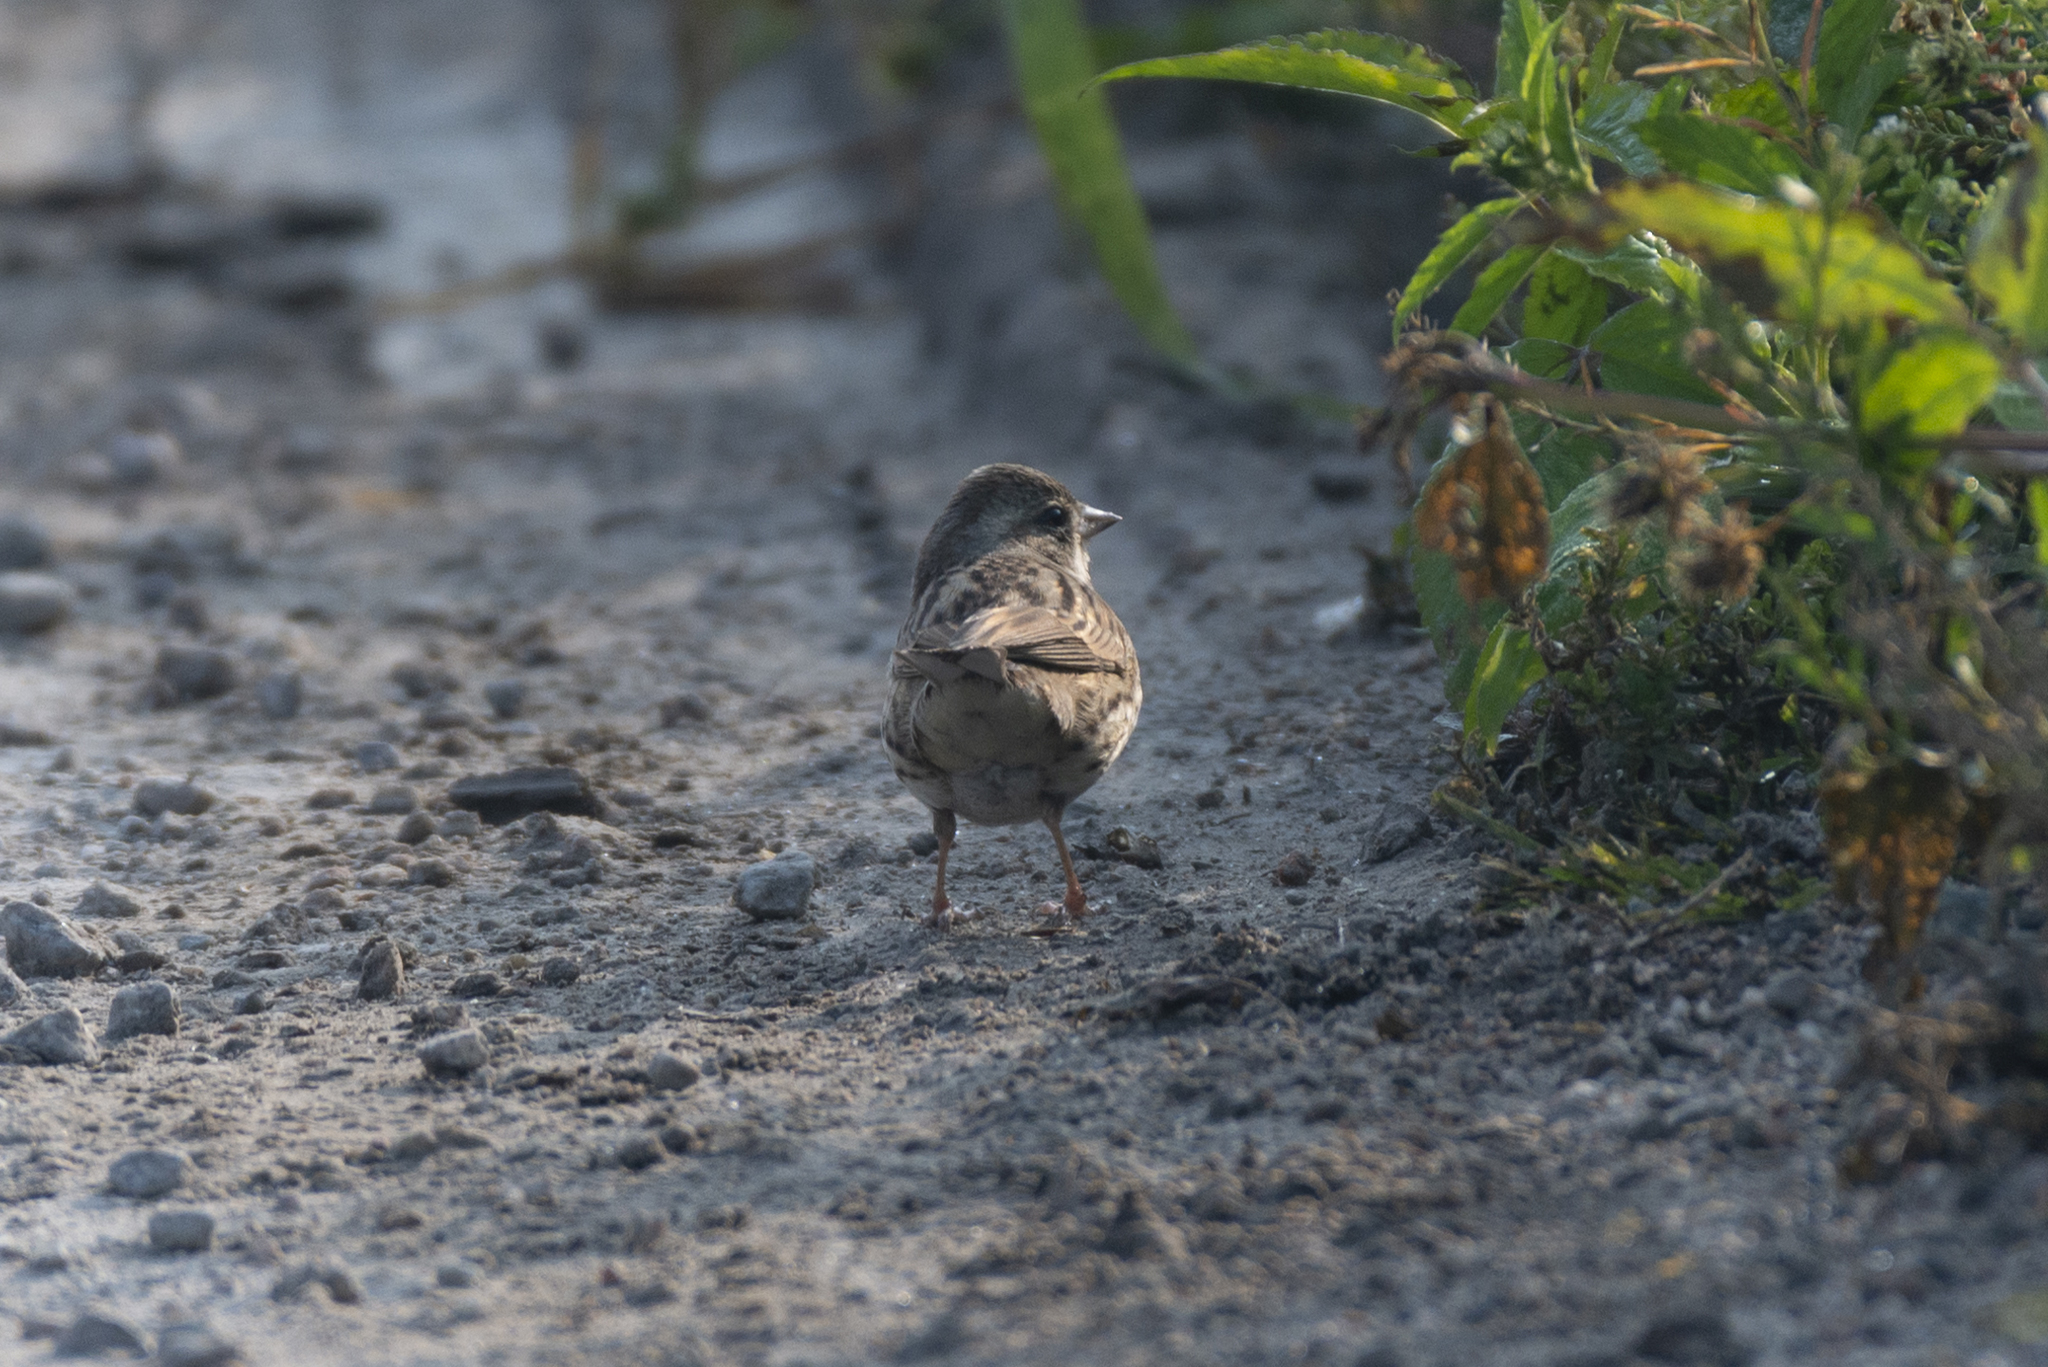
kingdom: Animalia
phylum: Chordata
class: Aves
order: Passeriformes
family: Emberizidae
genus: Emberiza
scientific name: Emberiza spodocephala
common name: Black-faced bunting
